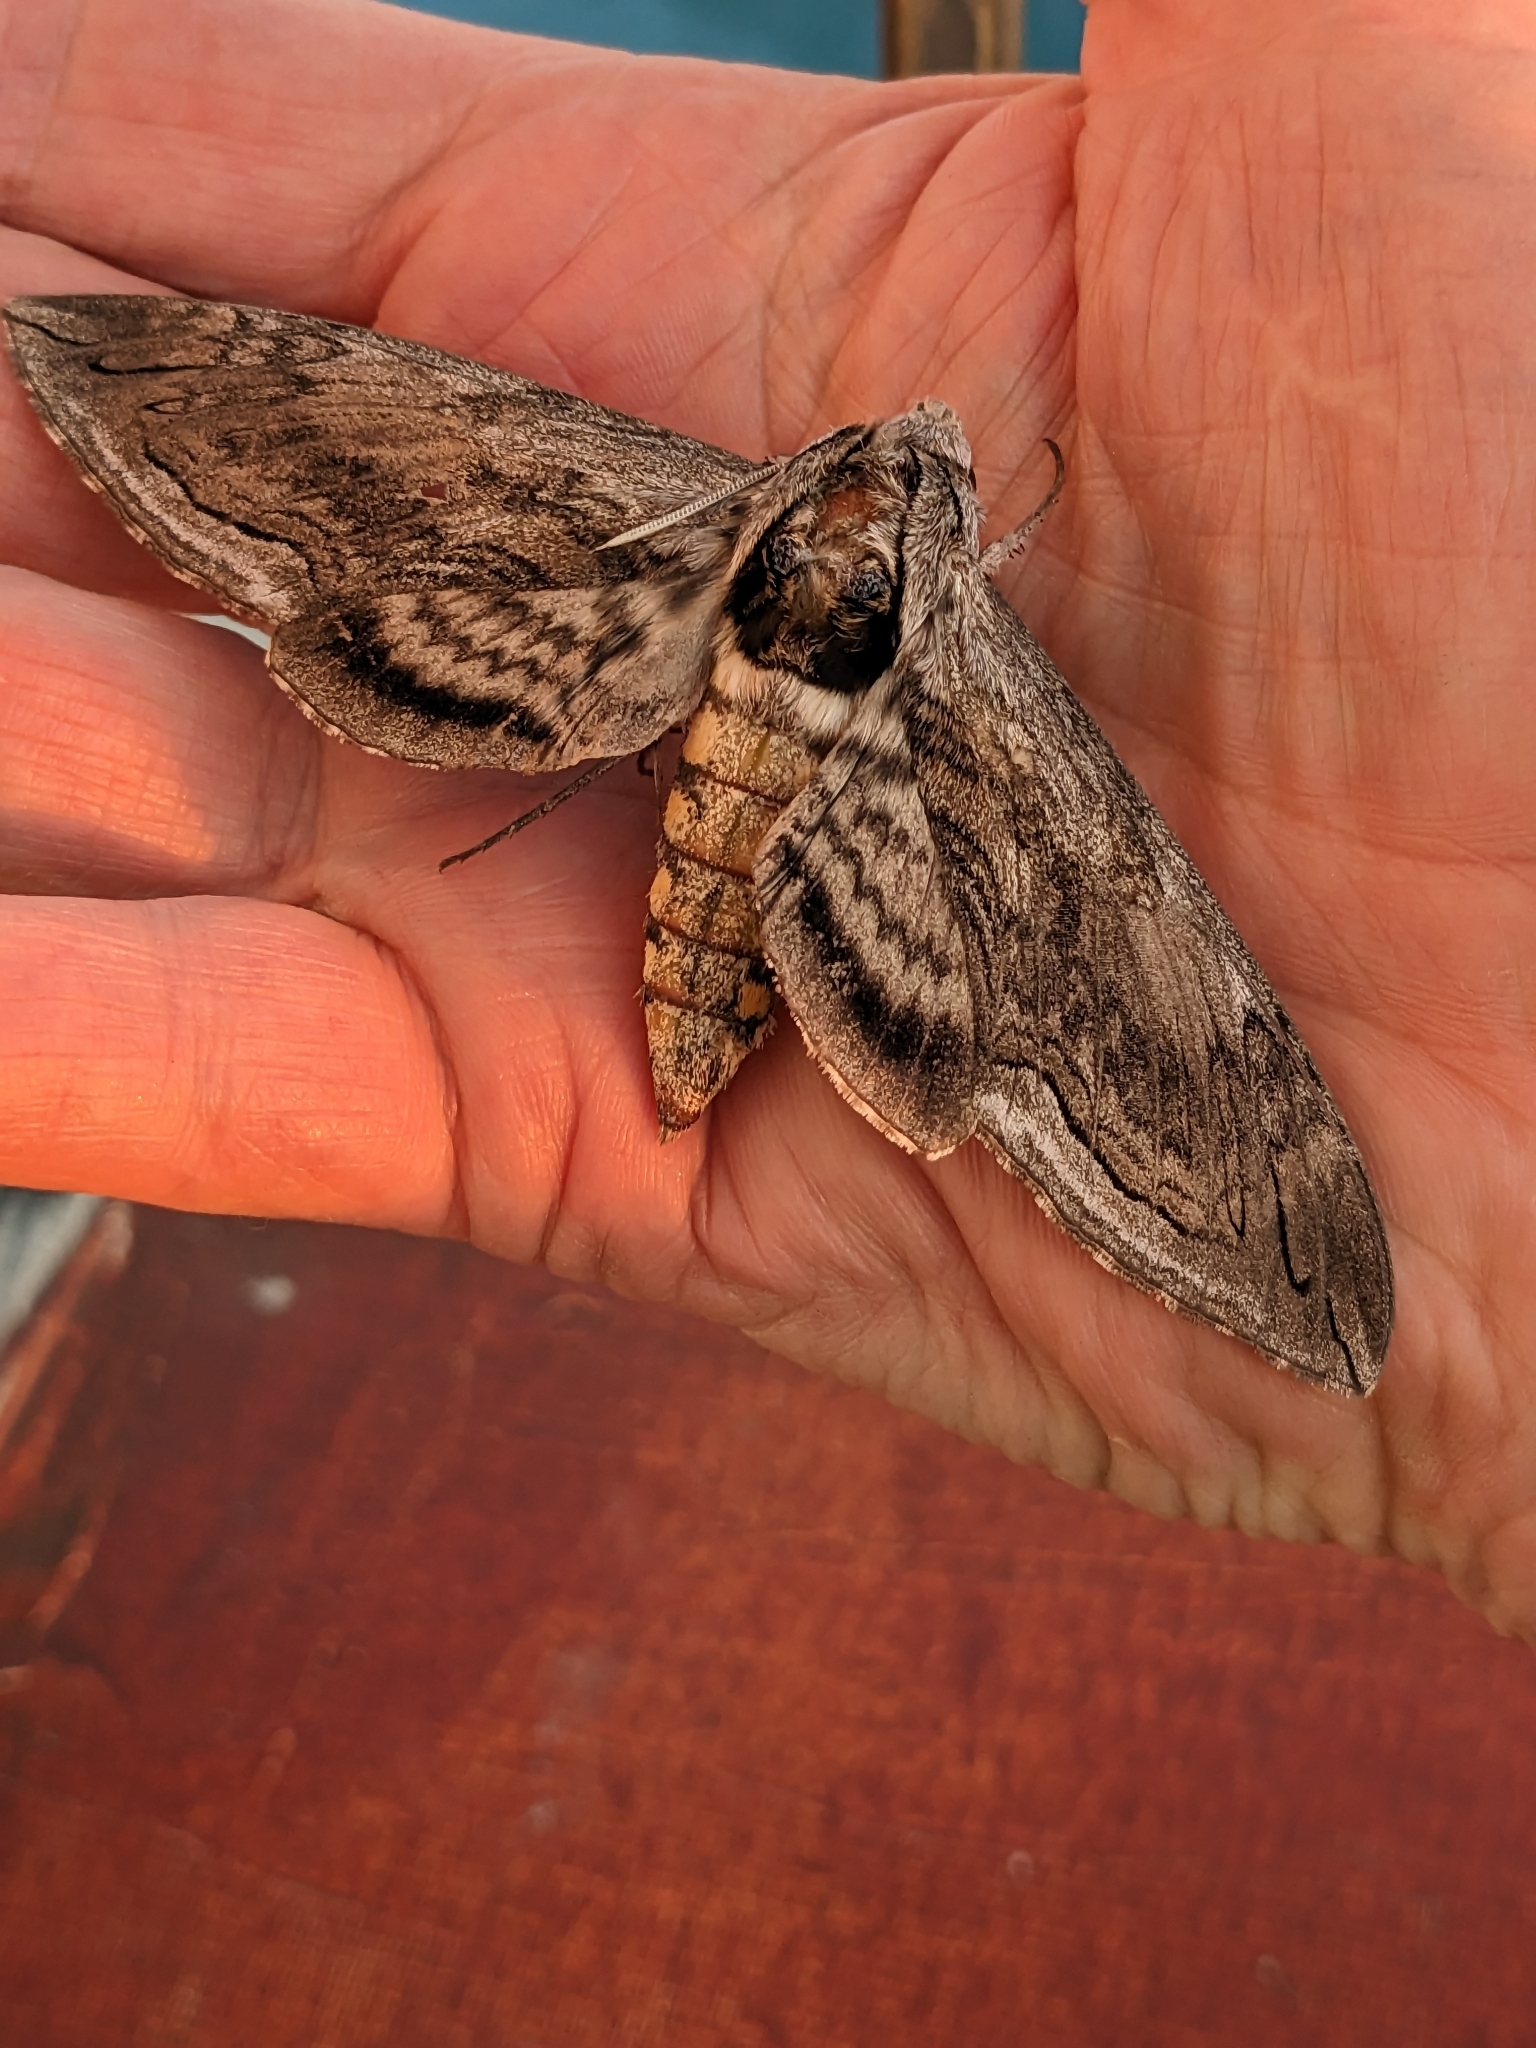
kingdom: Animalia
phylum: Arthropoda
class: Insecta
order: Lepidoptera
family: Sphingidae
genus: Manduca
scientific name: Manduca quinquemaculatus
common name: Five-spotted hawk-moth
